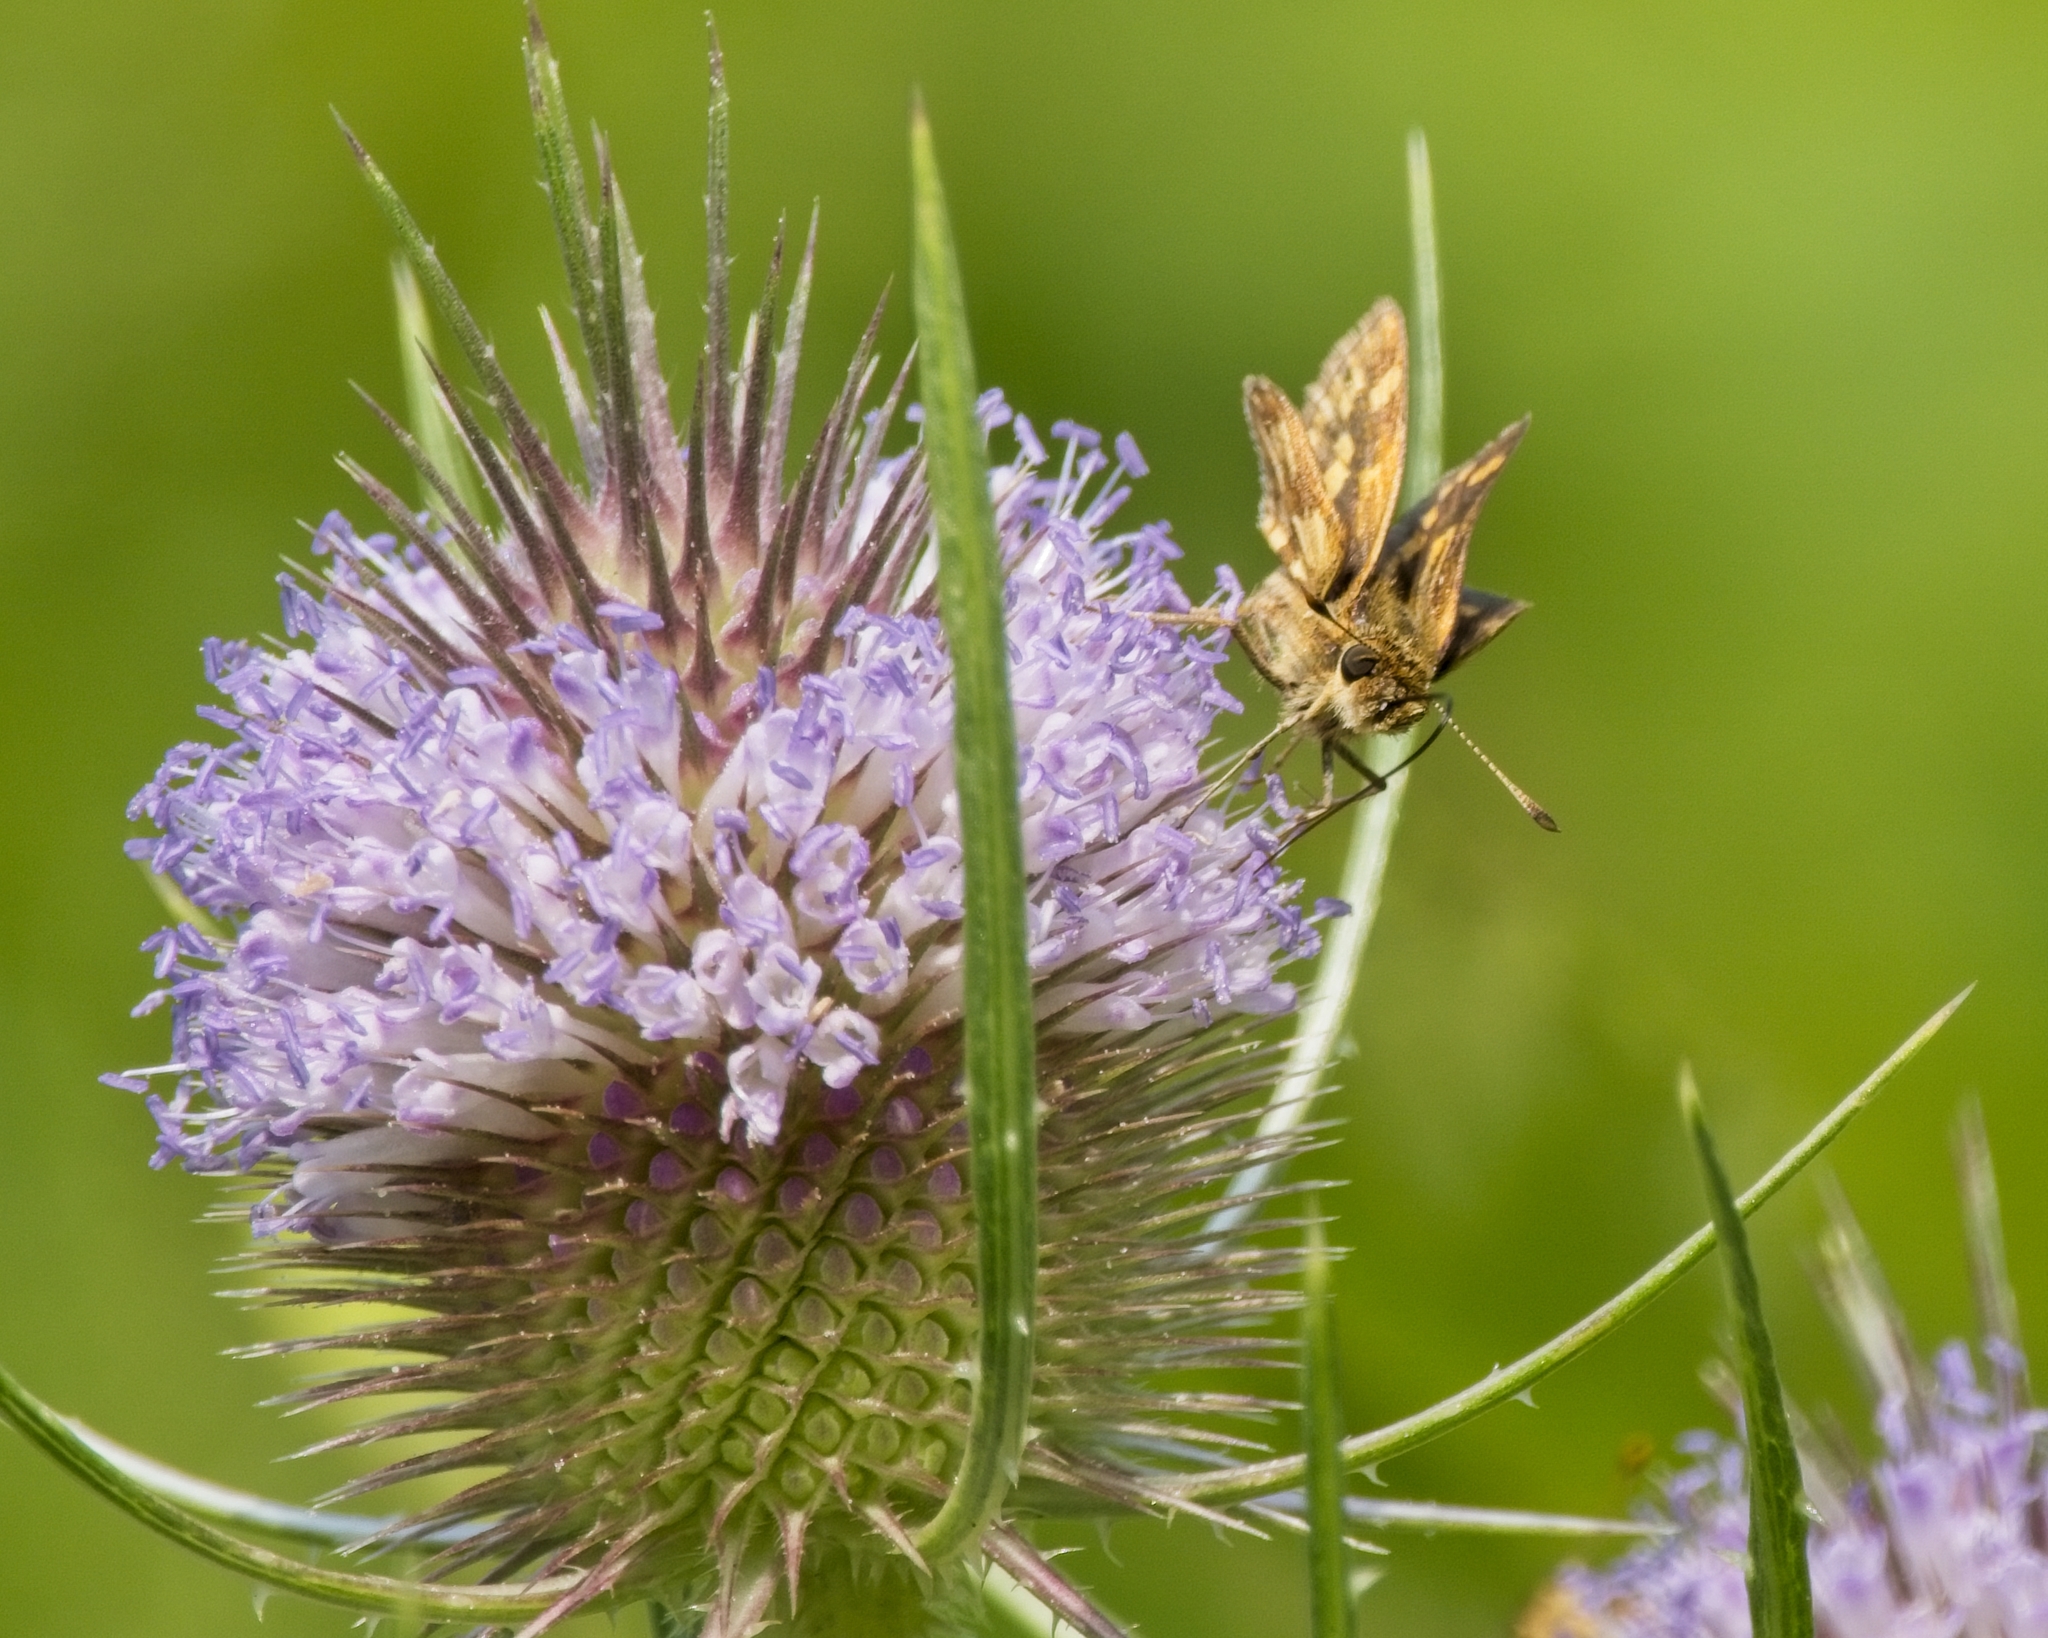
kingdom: Animalia
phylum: Arthropoda
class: Insecta
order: Lepidoptera
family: Hesperiidae
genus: Polites
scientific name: Polites coras
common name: Peck's skipper
